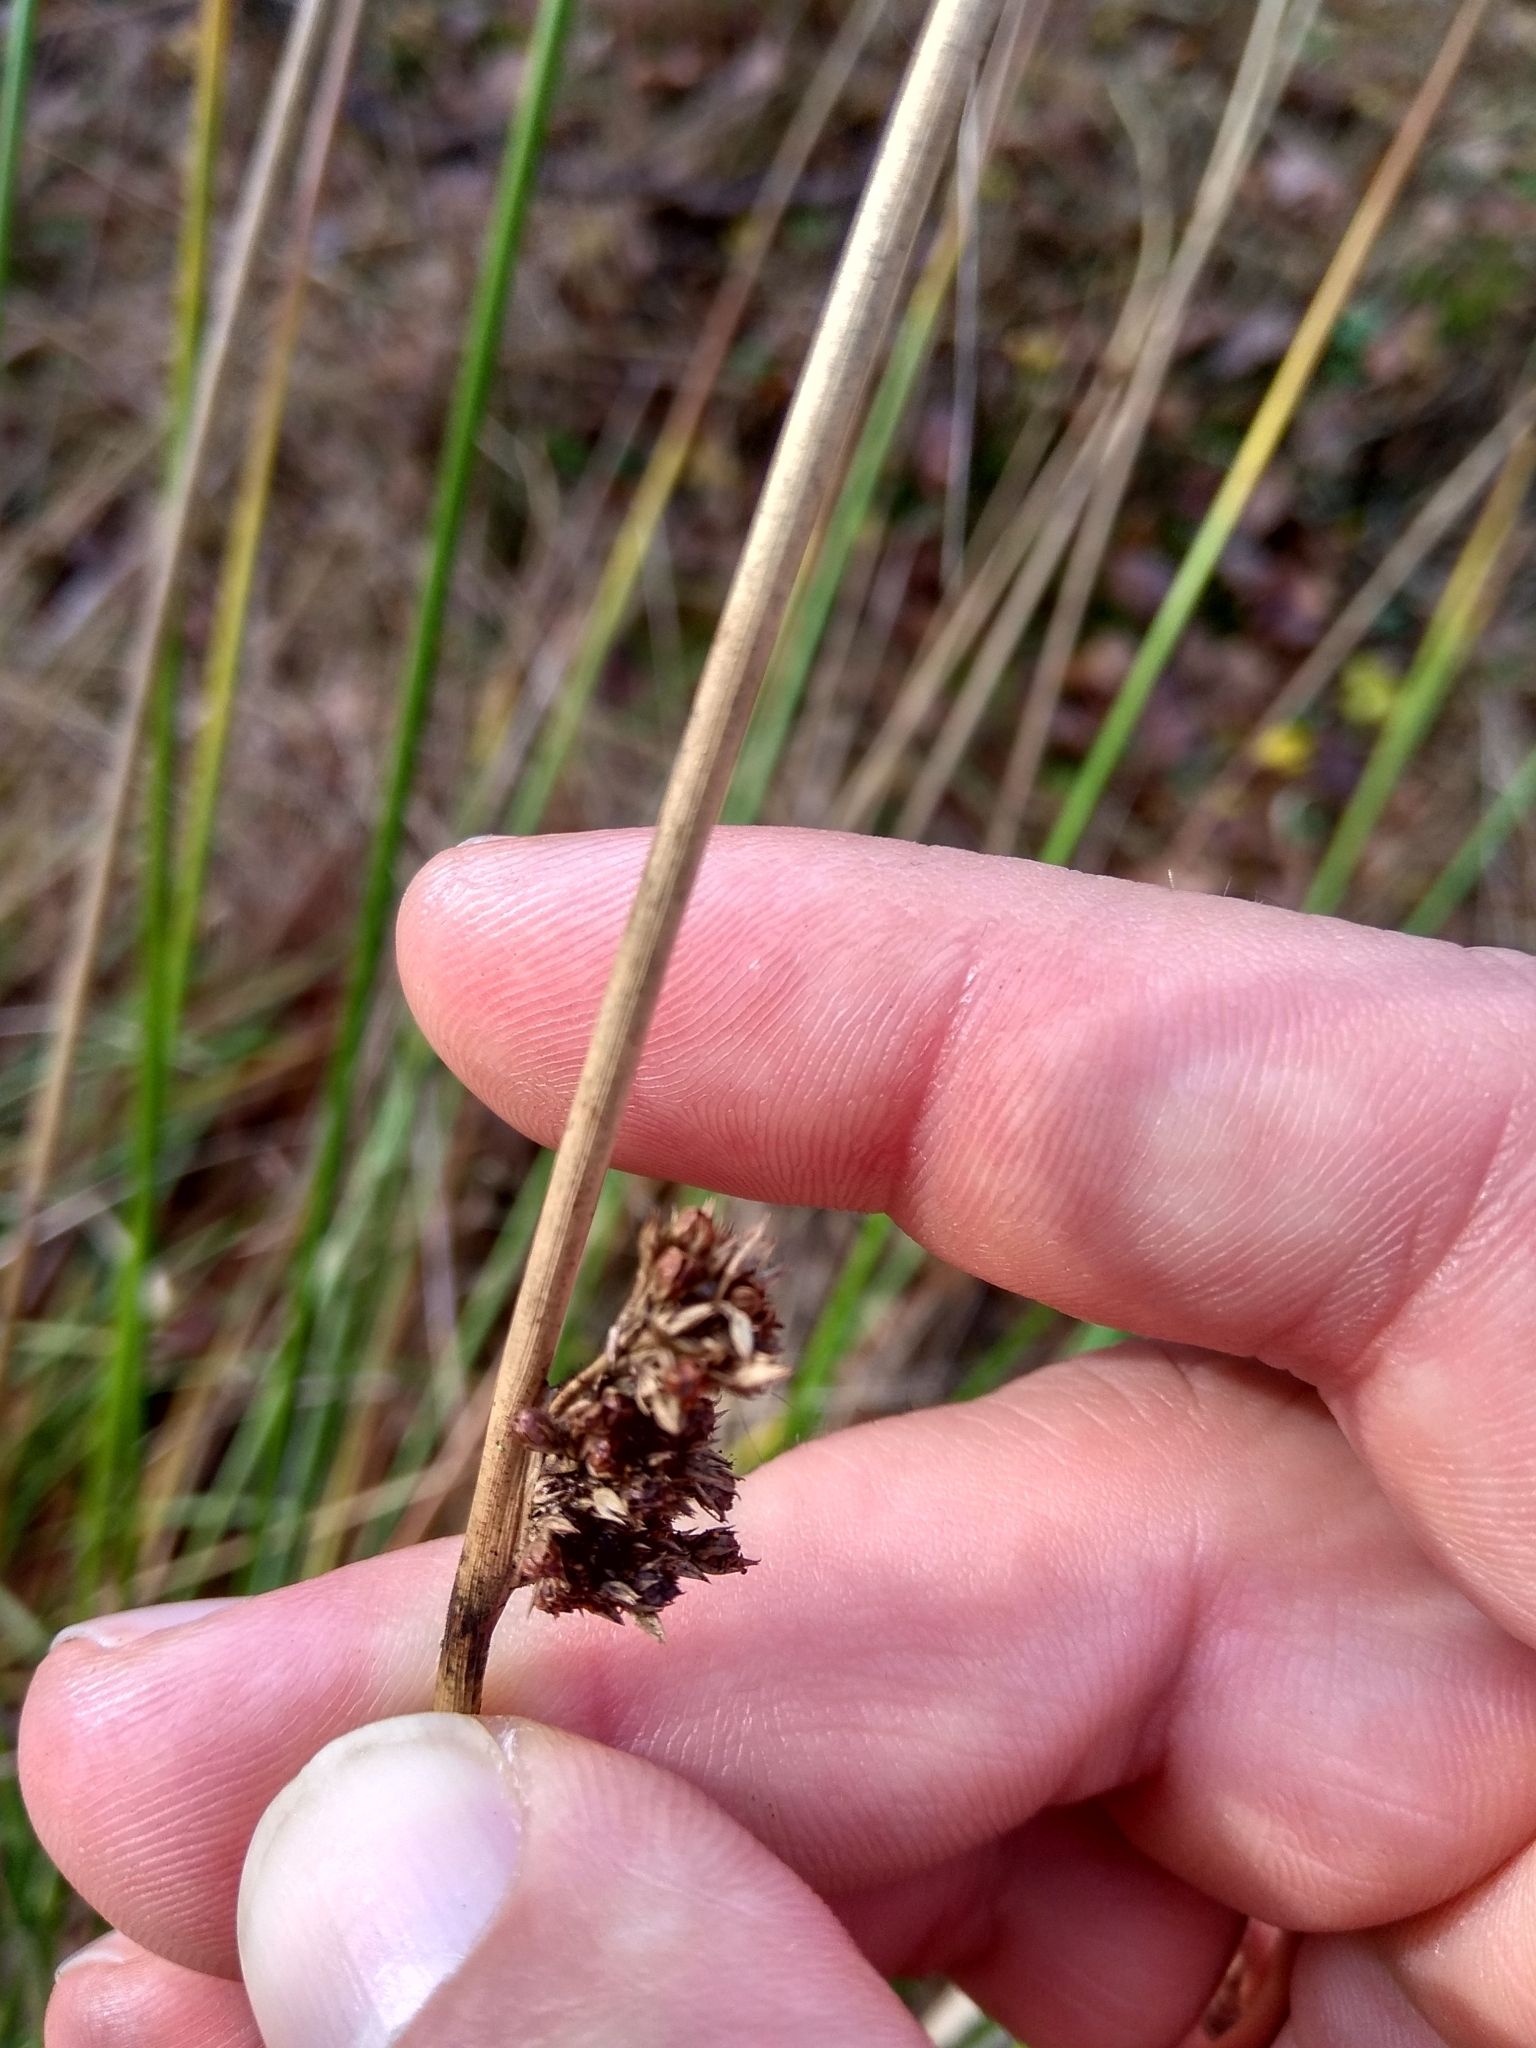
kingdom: Plantae
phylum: Tracheophyta
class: Liliopsida
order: Poales
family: Juncaceae
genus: Juncus
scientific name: Juncus effusus
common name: Soft rush
